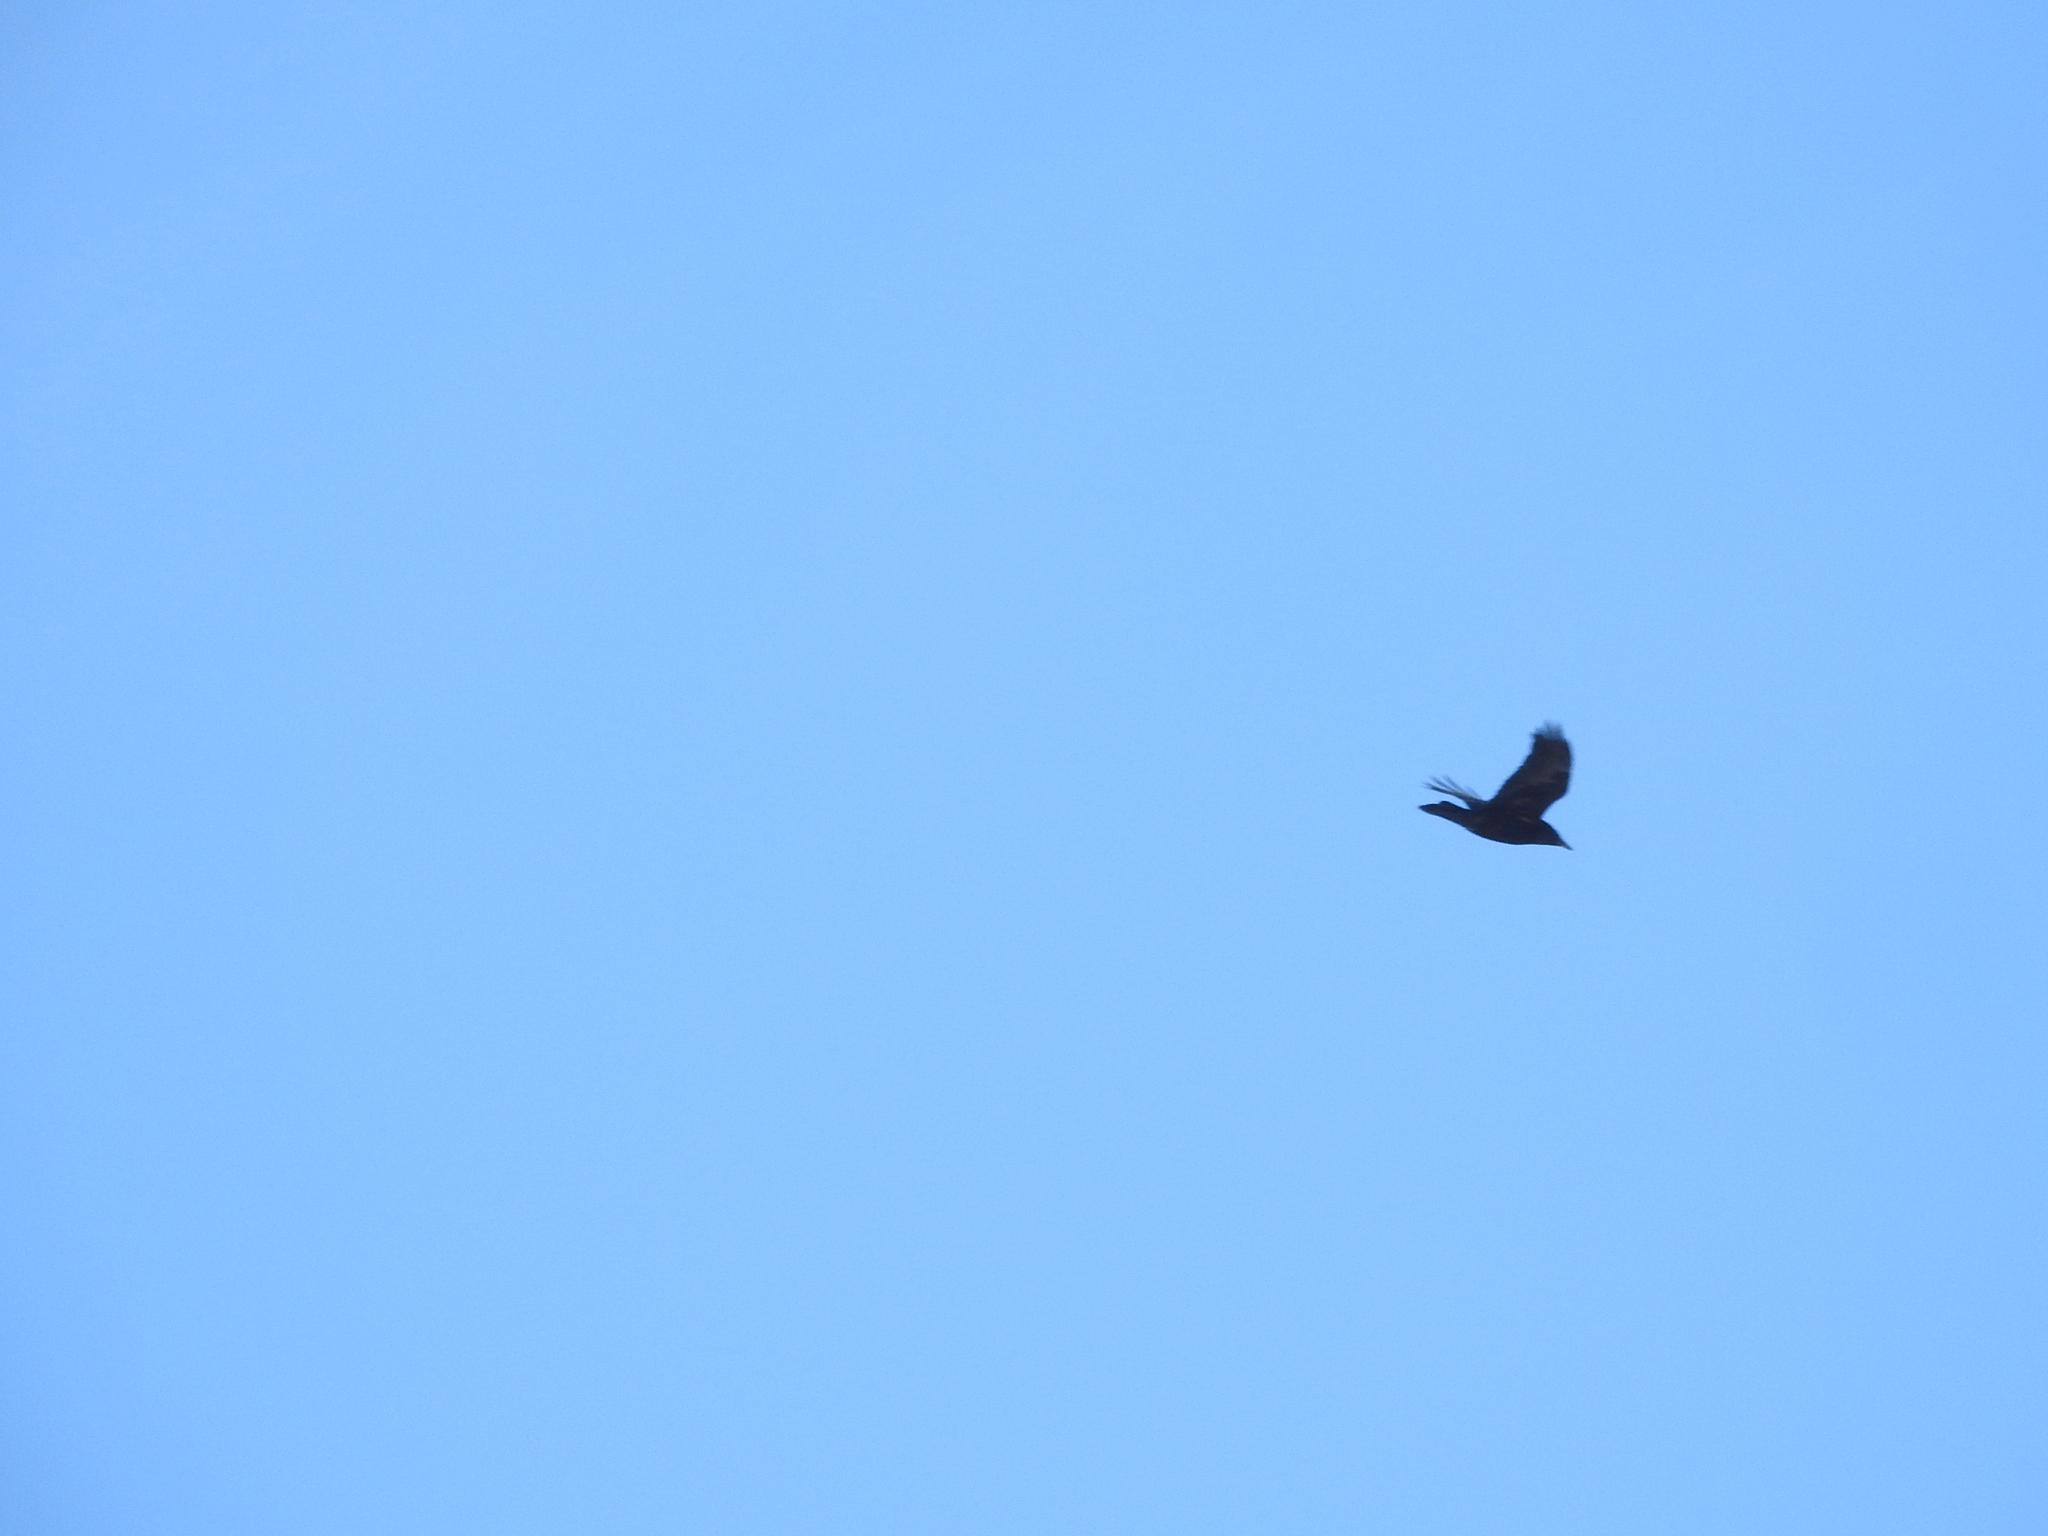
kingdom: Animalia
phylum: Chordata
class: Aves
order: Passeriformes
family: Corvidae
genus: Corvus
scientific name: Corvus corax
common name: Common raven
